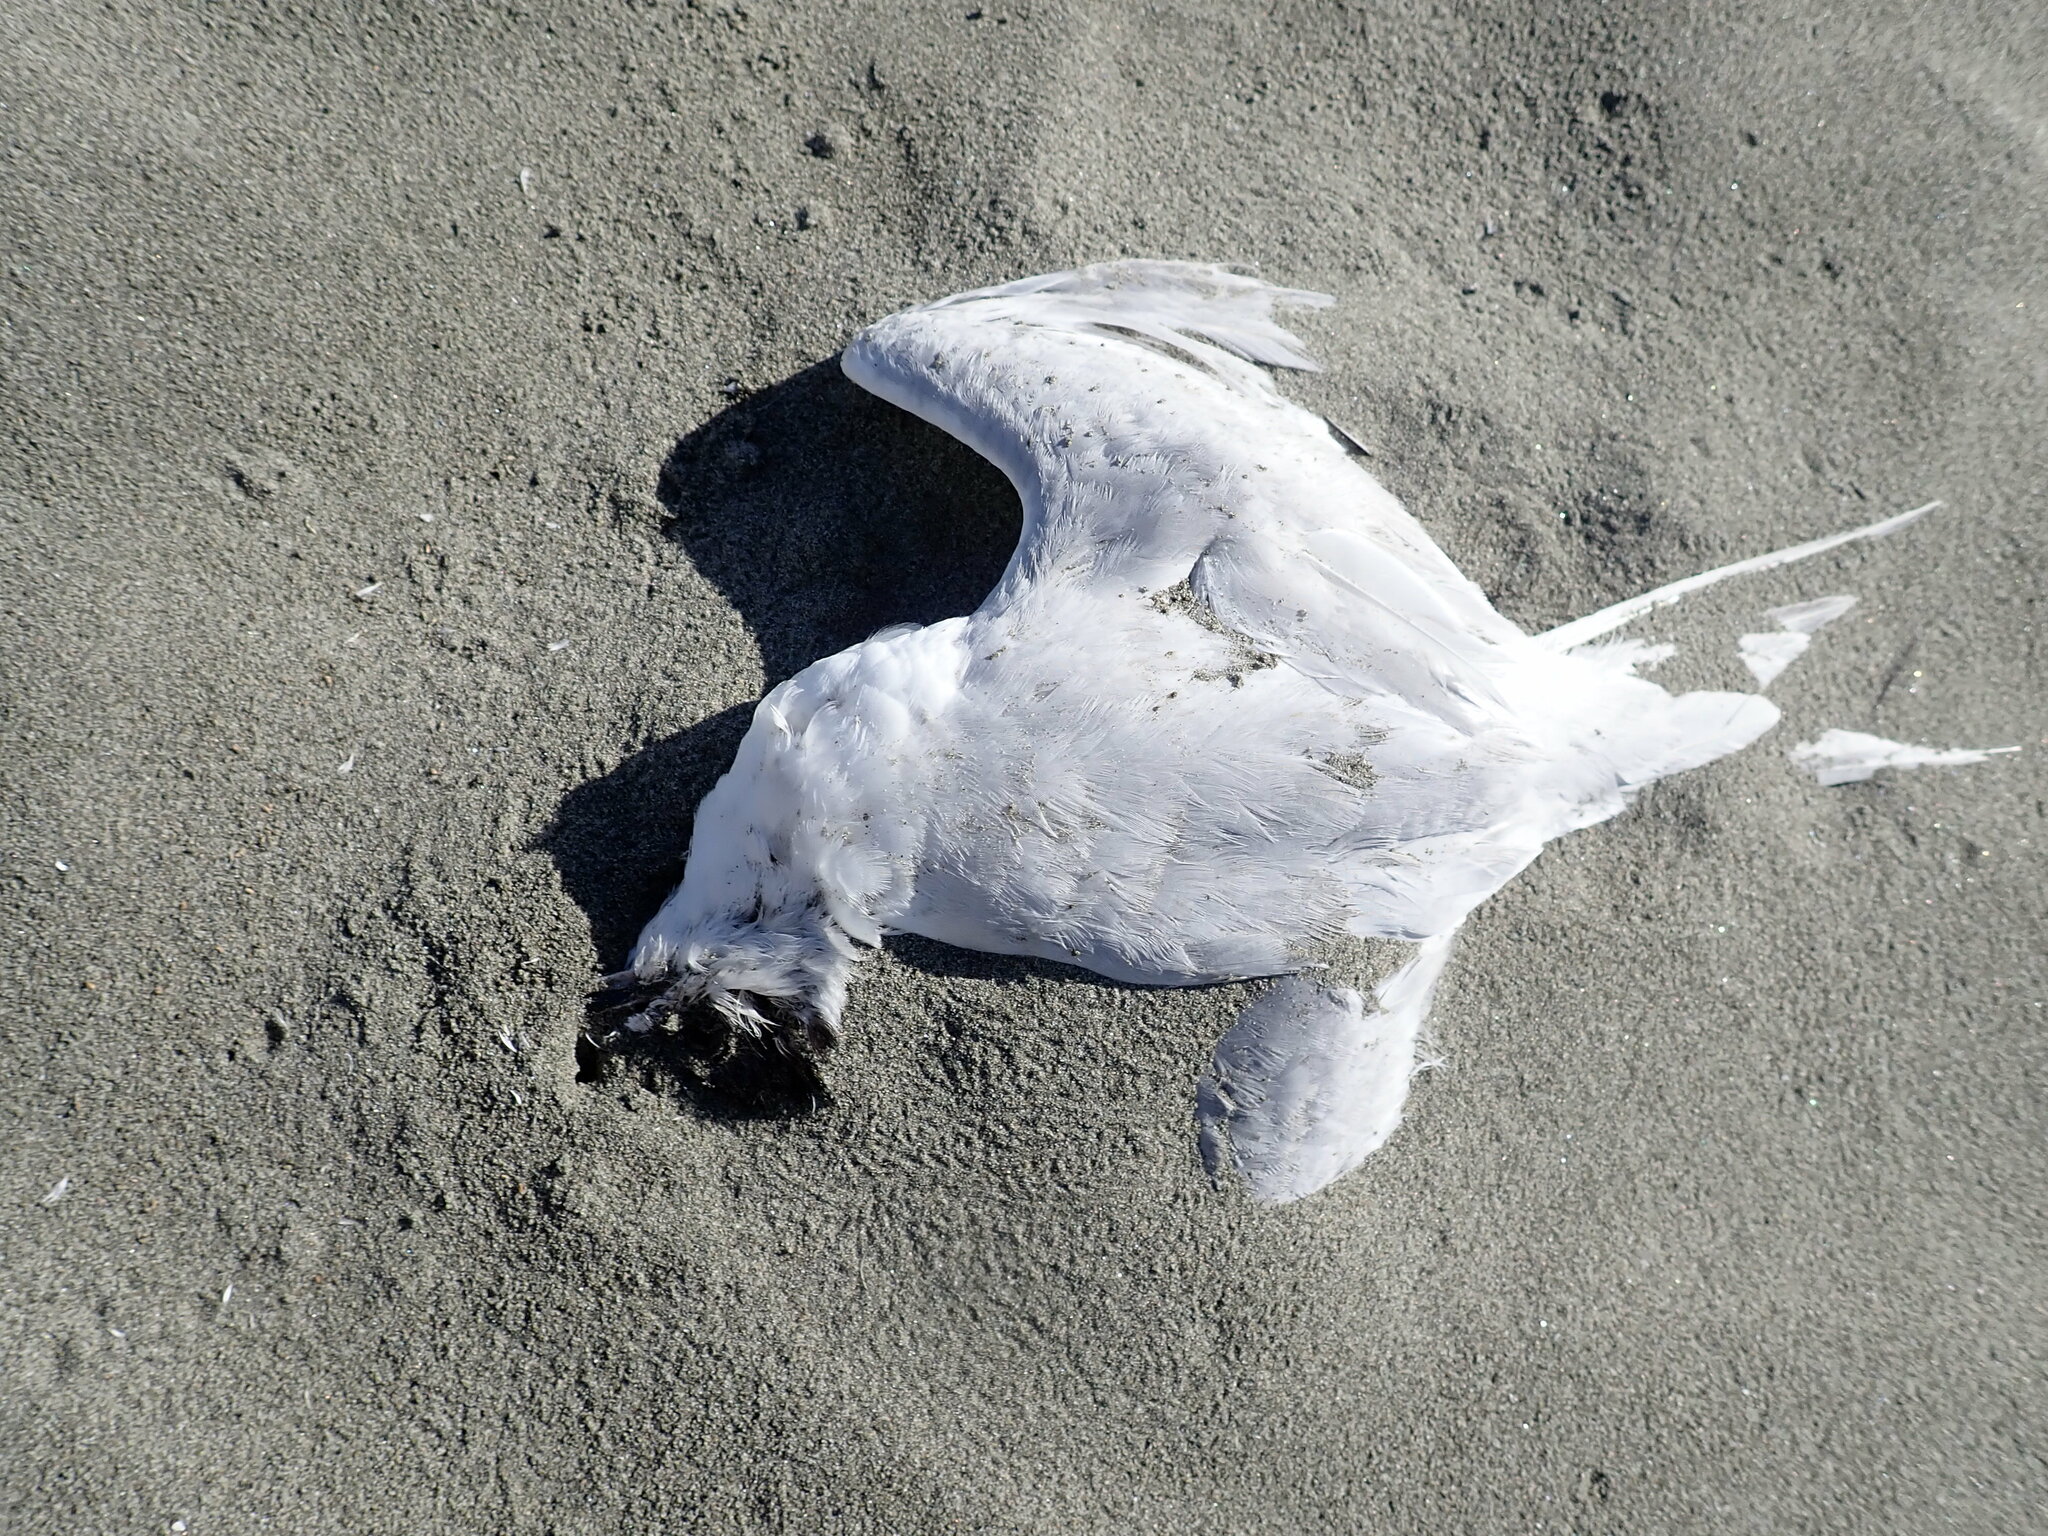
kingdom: Animalia
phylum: Chordata
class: Aves
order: Charadriiformes
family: Laridae
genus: Sterna
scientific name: Sterna striata
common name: White-fronted tern
